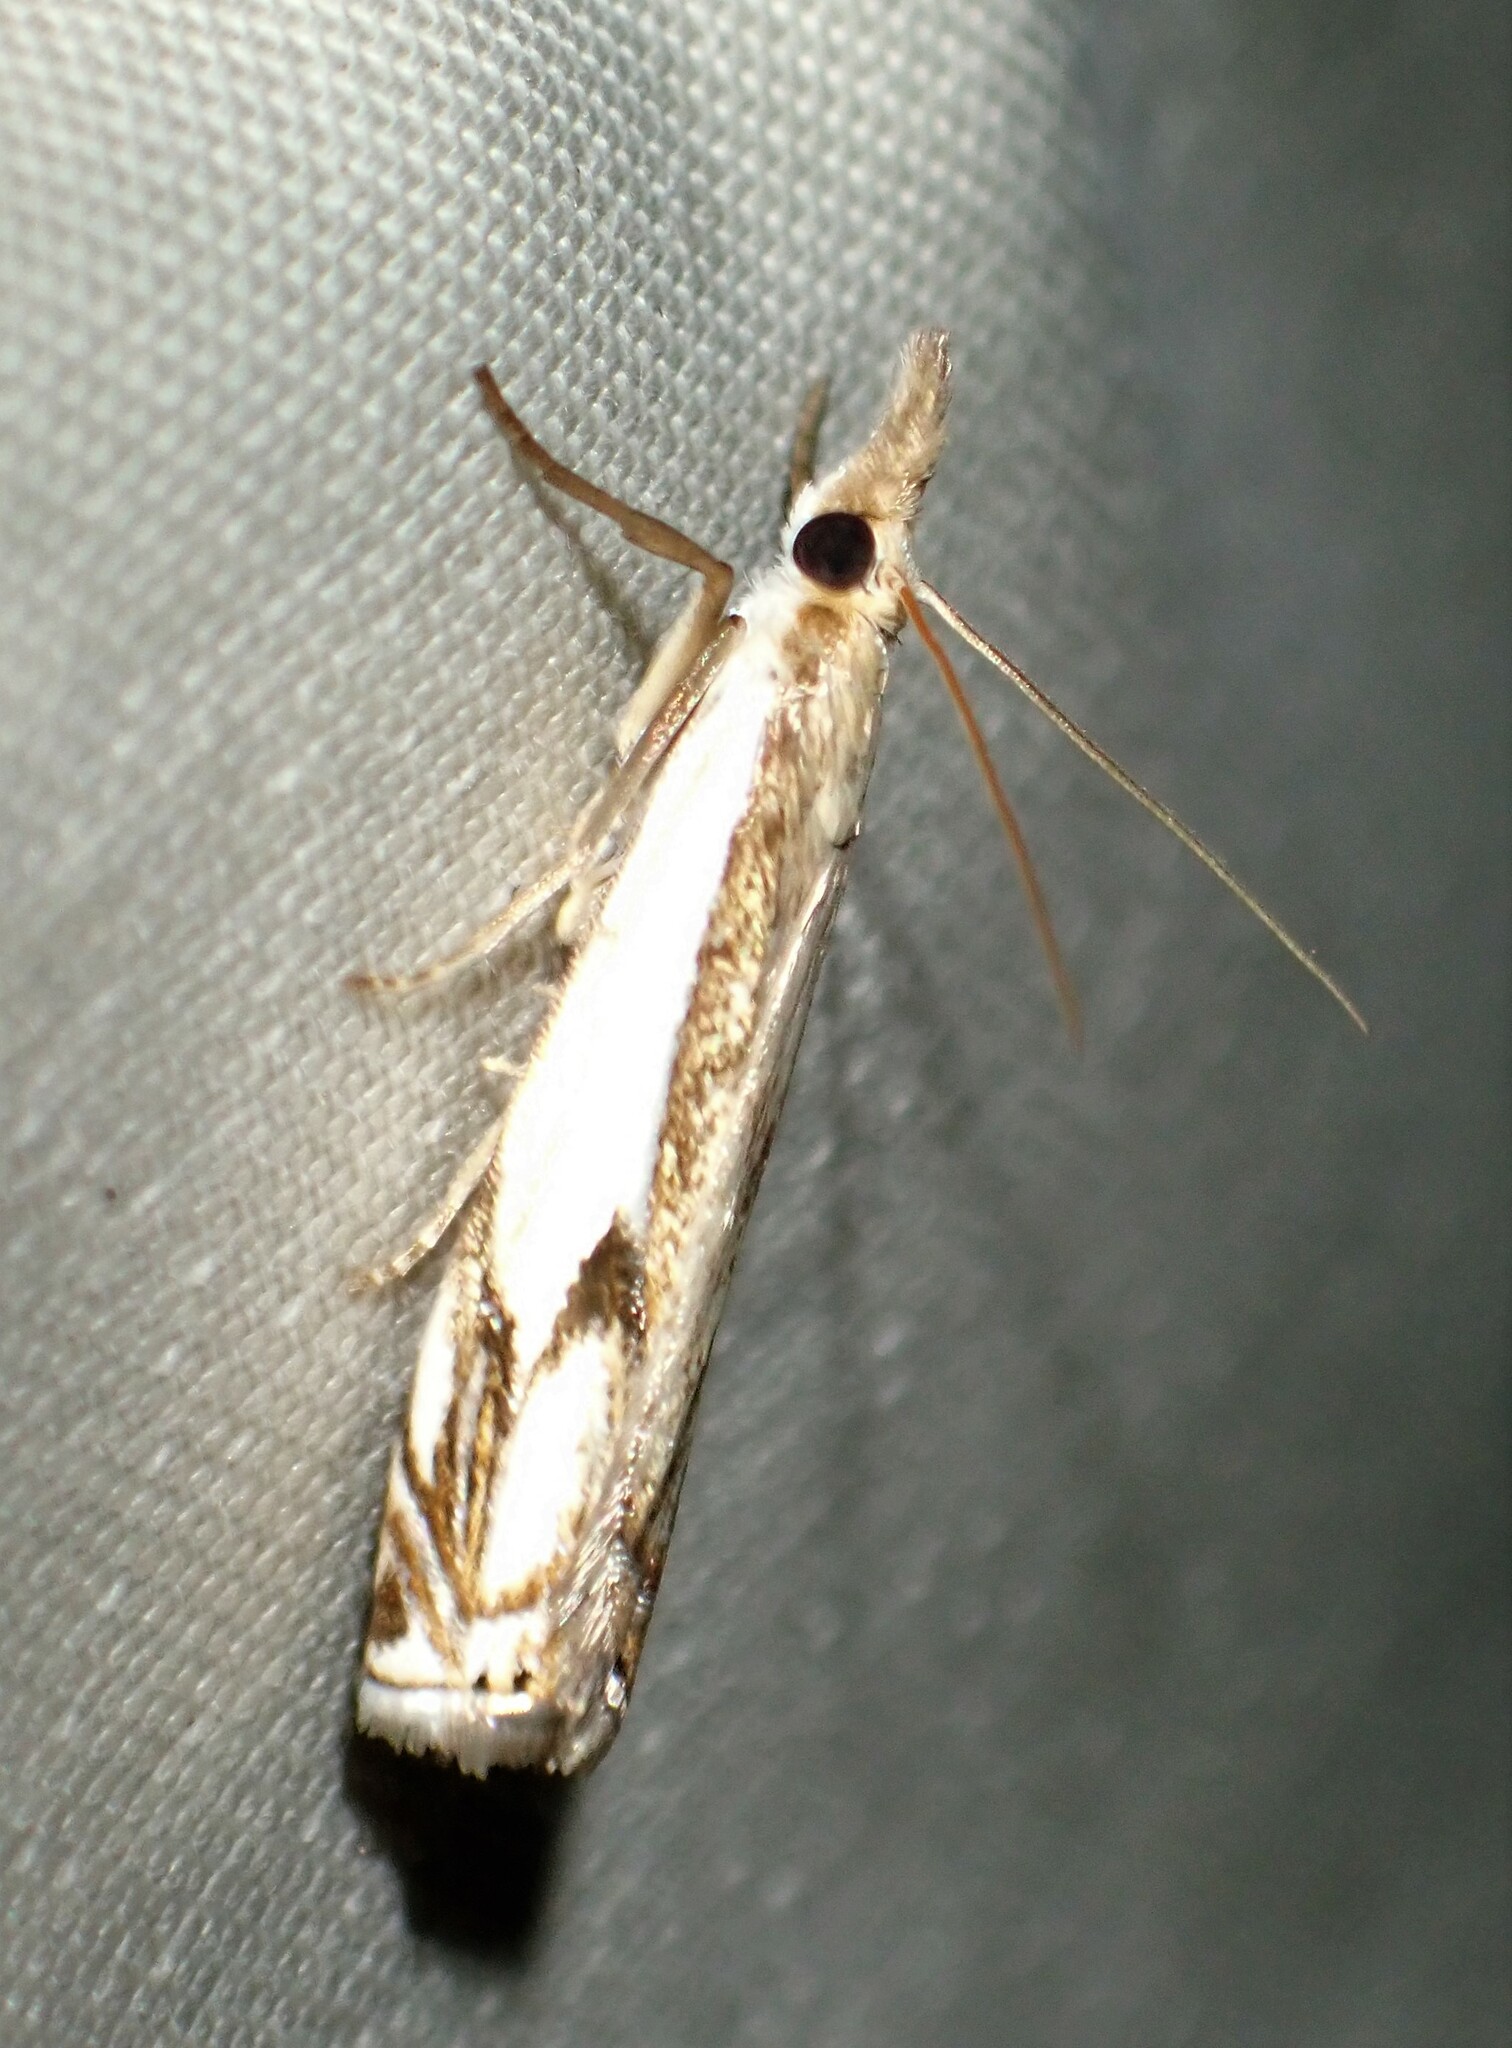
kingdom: Animalia
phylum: Arthropoda
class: Insecta
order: Lepidoptera
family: Crambidae
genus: Crambus
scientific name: Crambus agitatellus
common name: Double-banded grass-veneer
